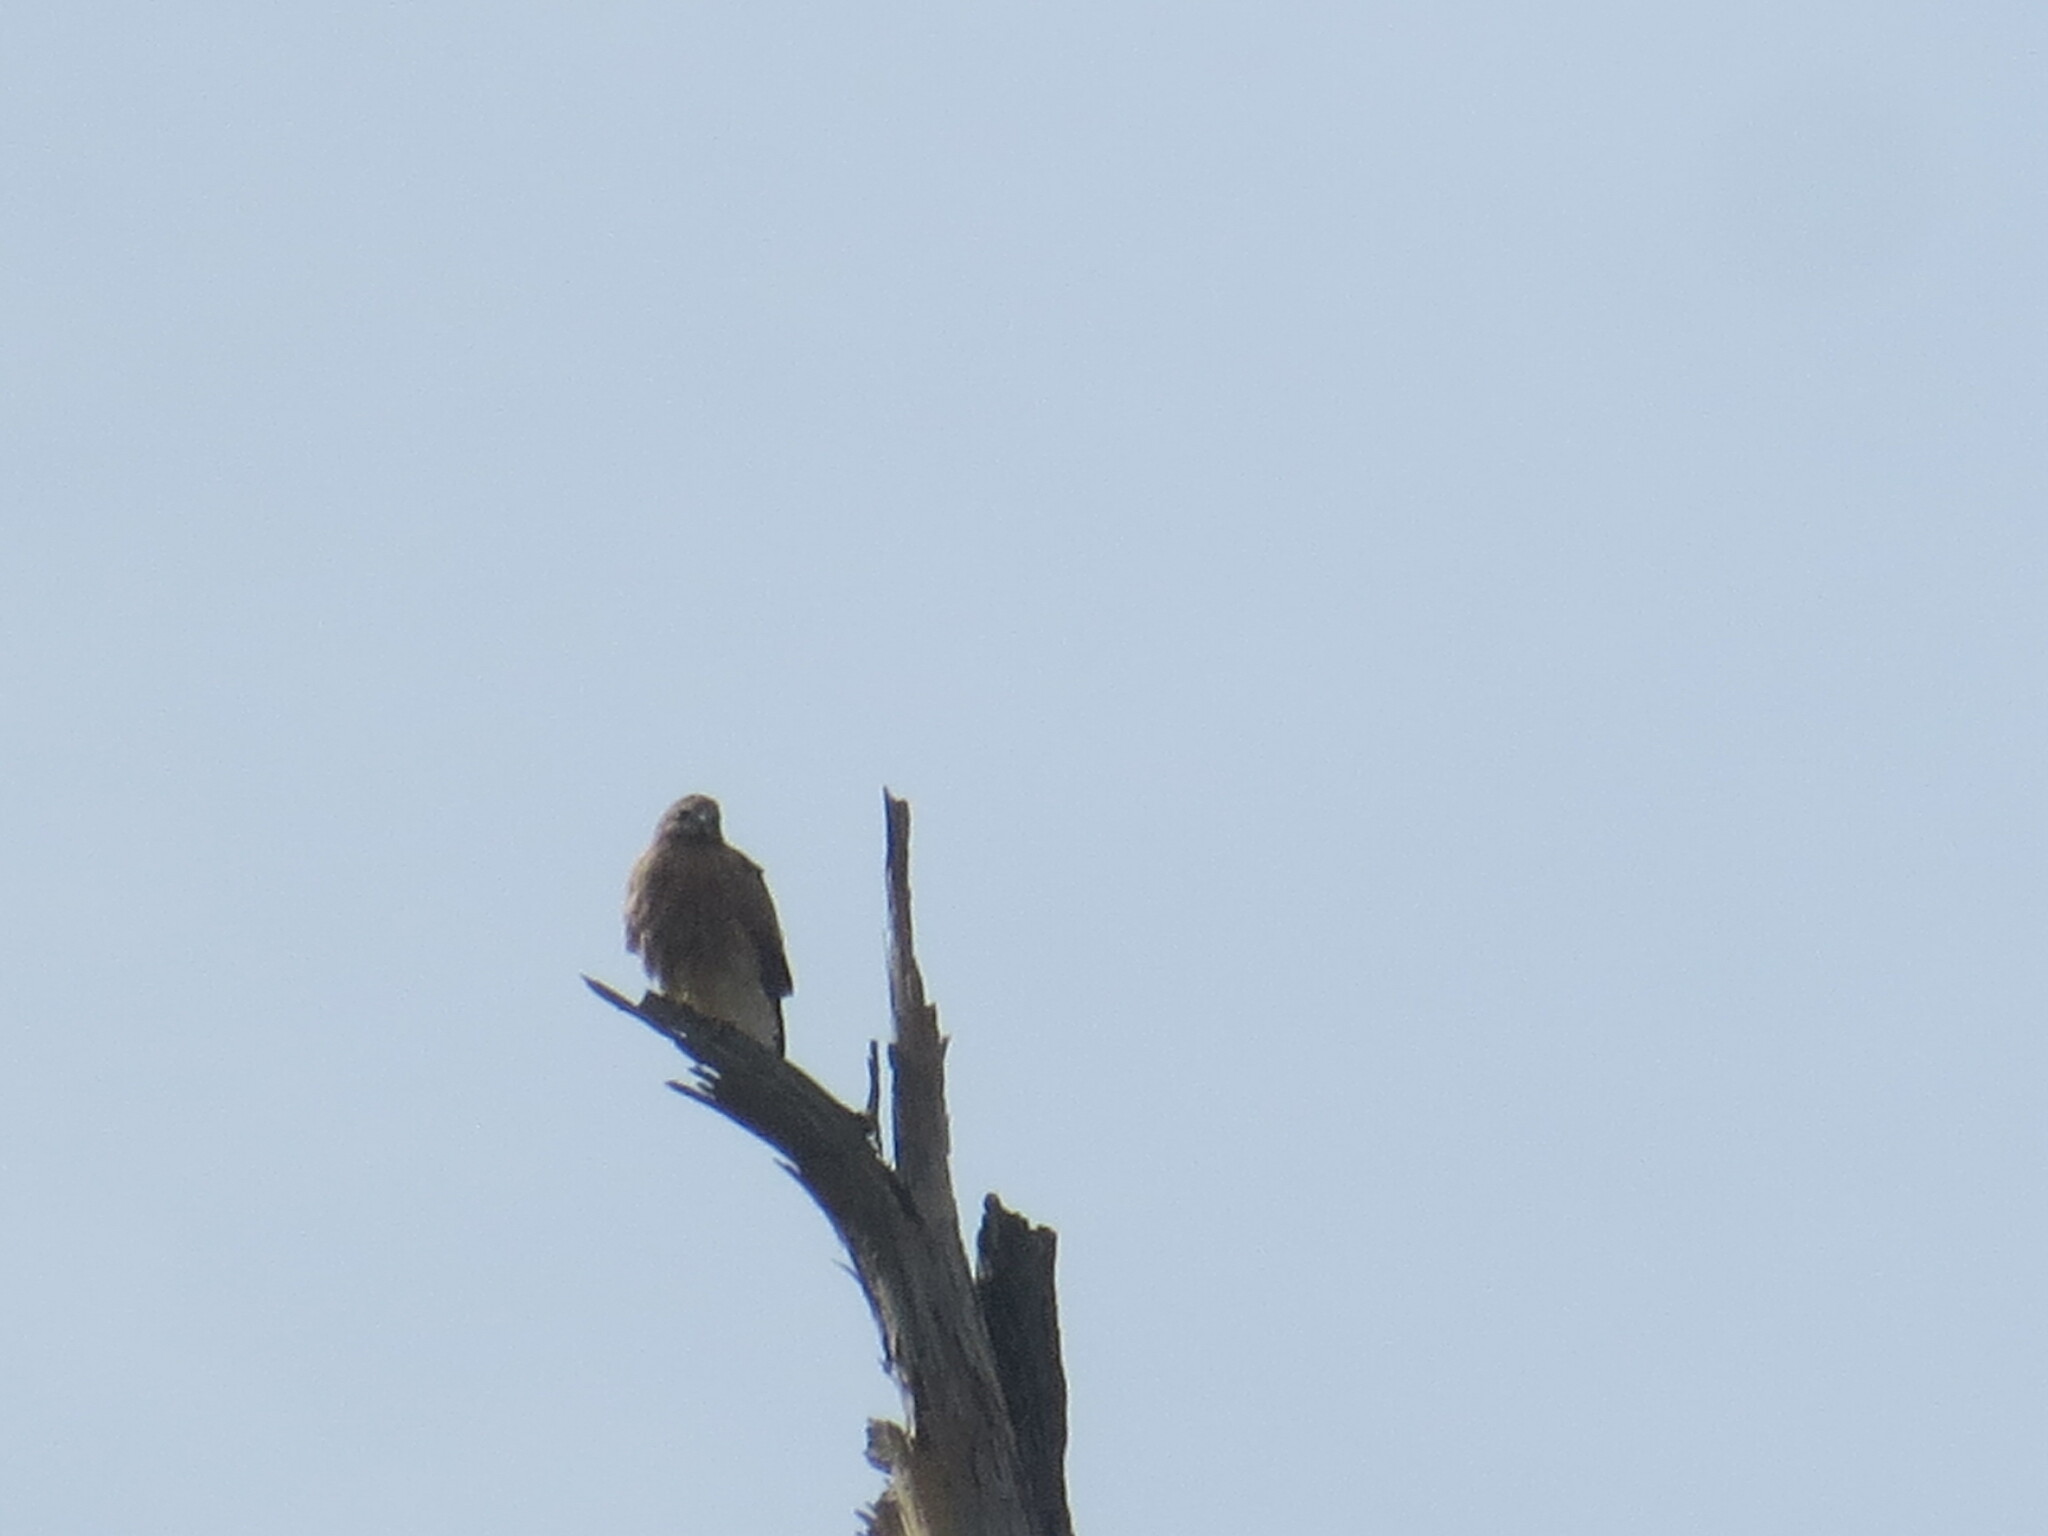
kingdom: Animalia
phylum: Chordata
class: Aves
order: Accipitriformes
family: Accipitridae
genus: Buteo
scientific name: Buteo lineatus
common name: Red-shouldered hawk
